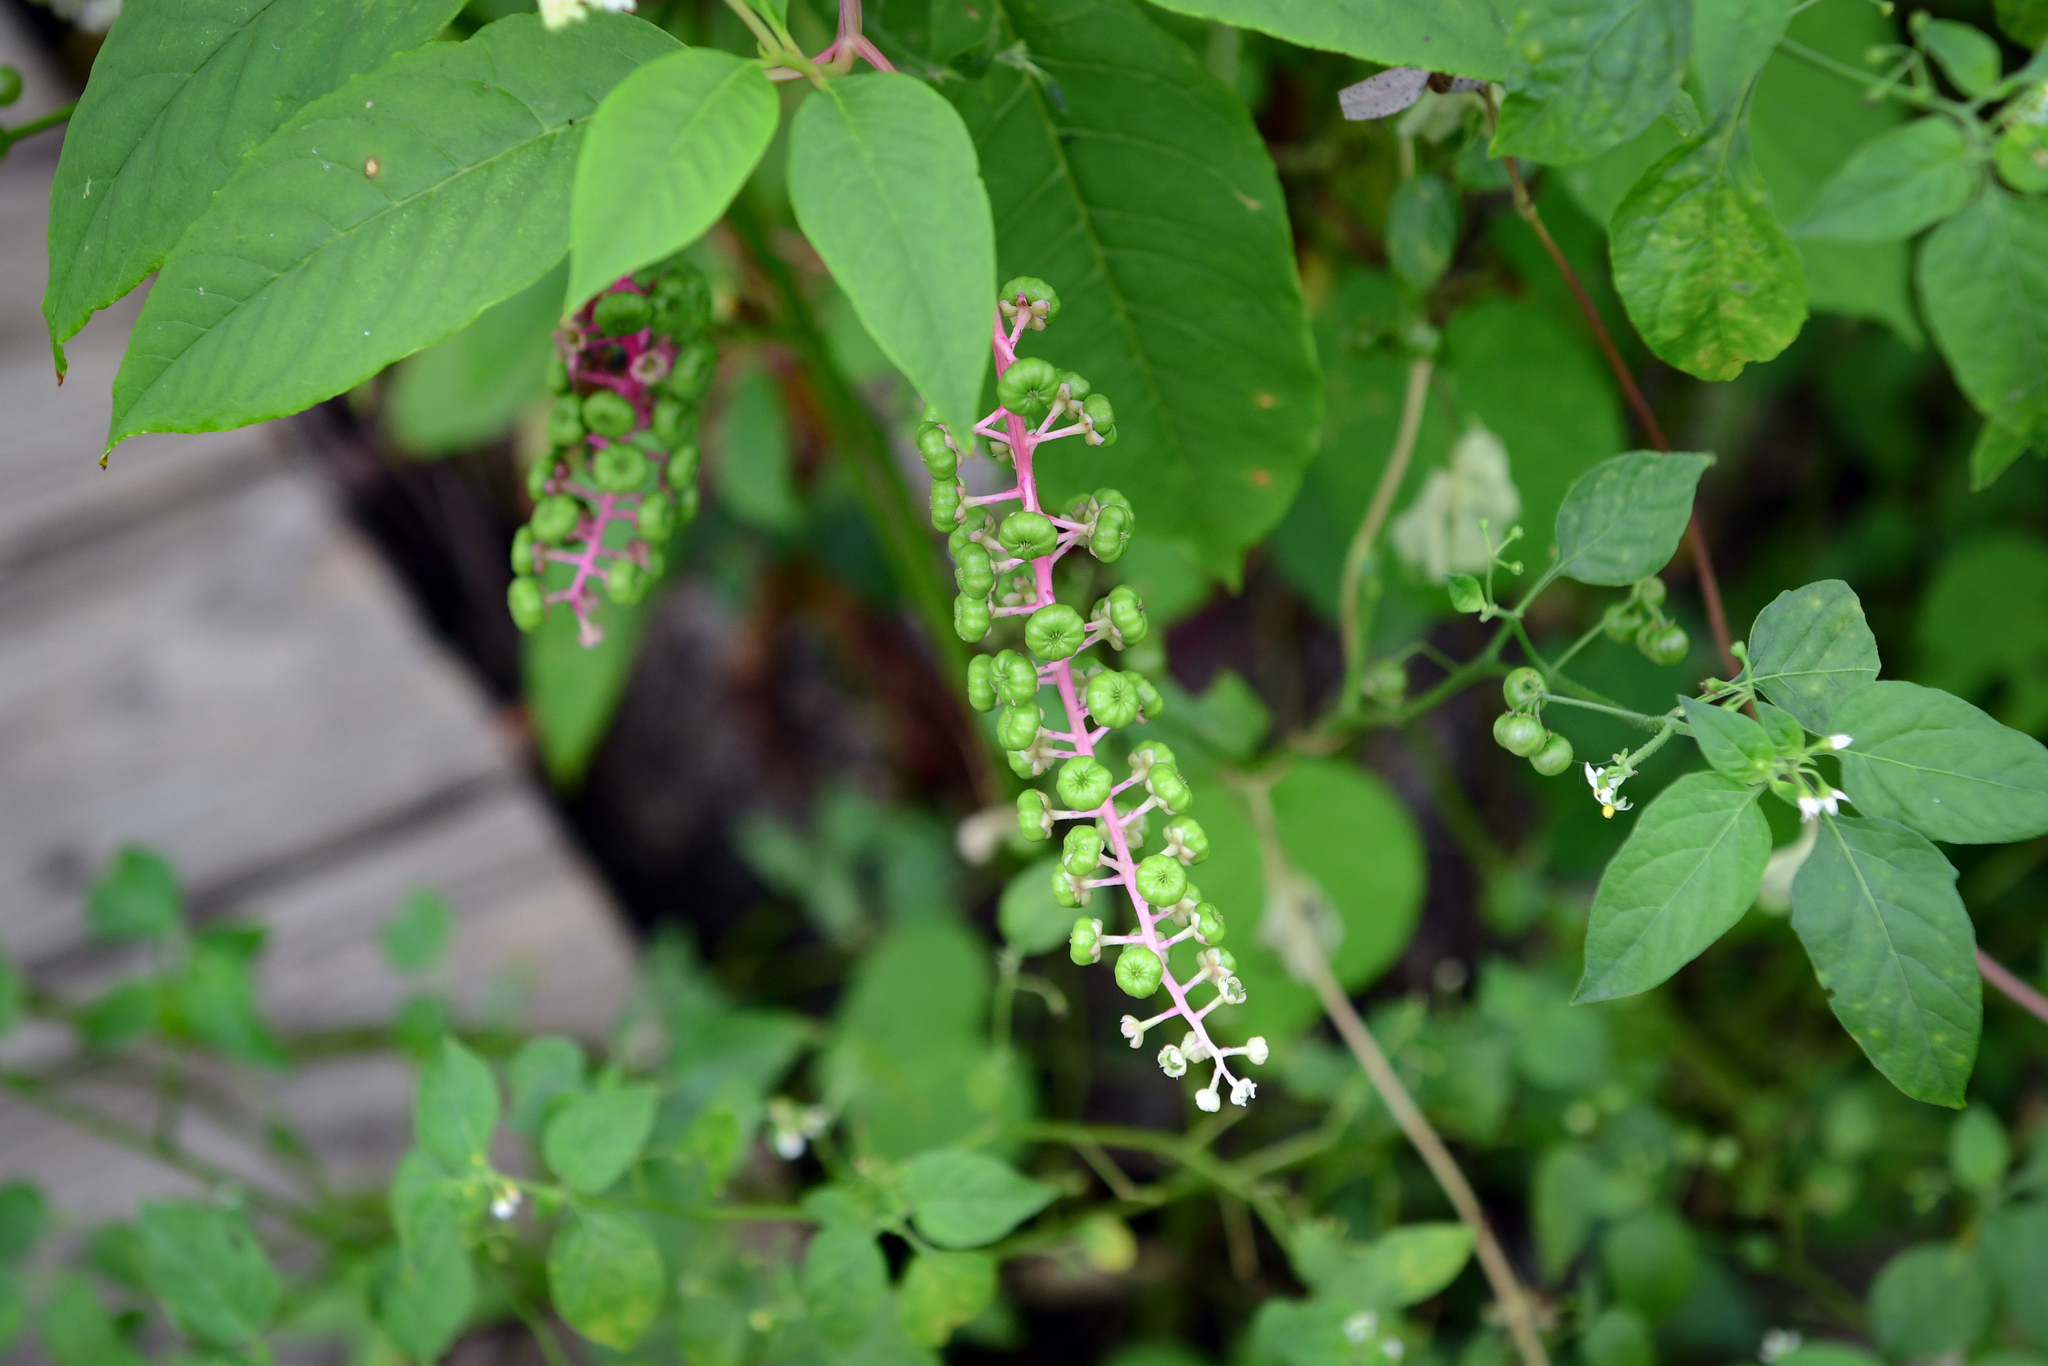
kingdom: Plantae
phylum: Tracheophyta
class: Magnoliopsida
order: Caryophyllales
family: Phytolaccaceae
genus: Phytolacca
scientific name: Phytolacca americana
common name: American pokeweed
